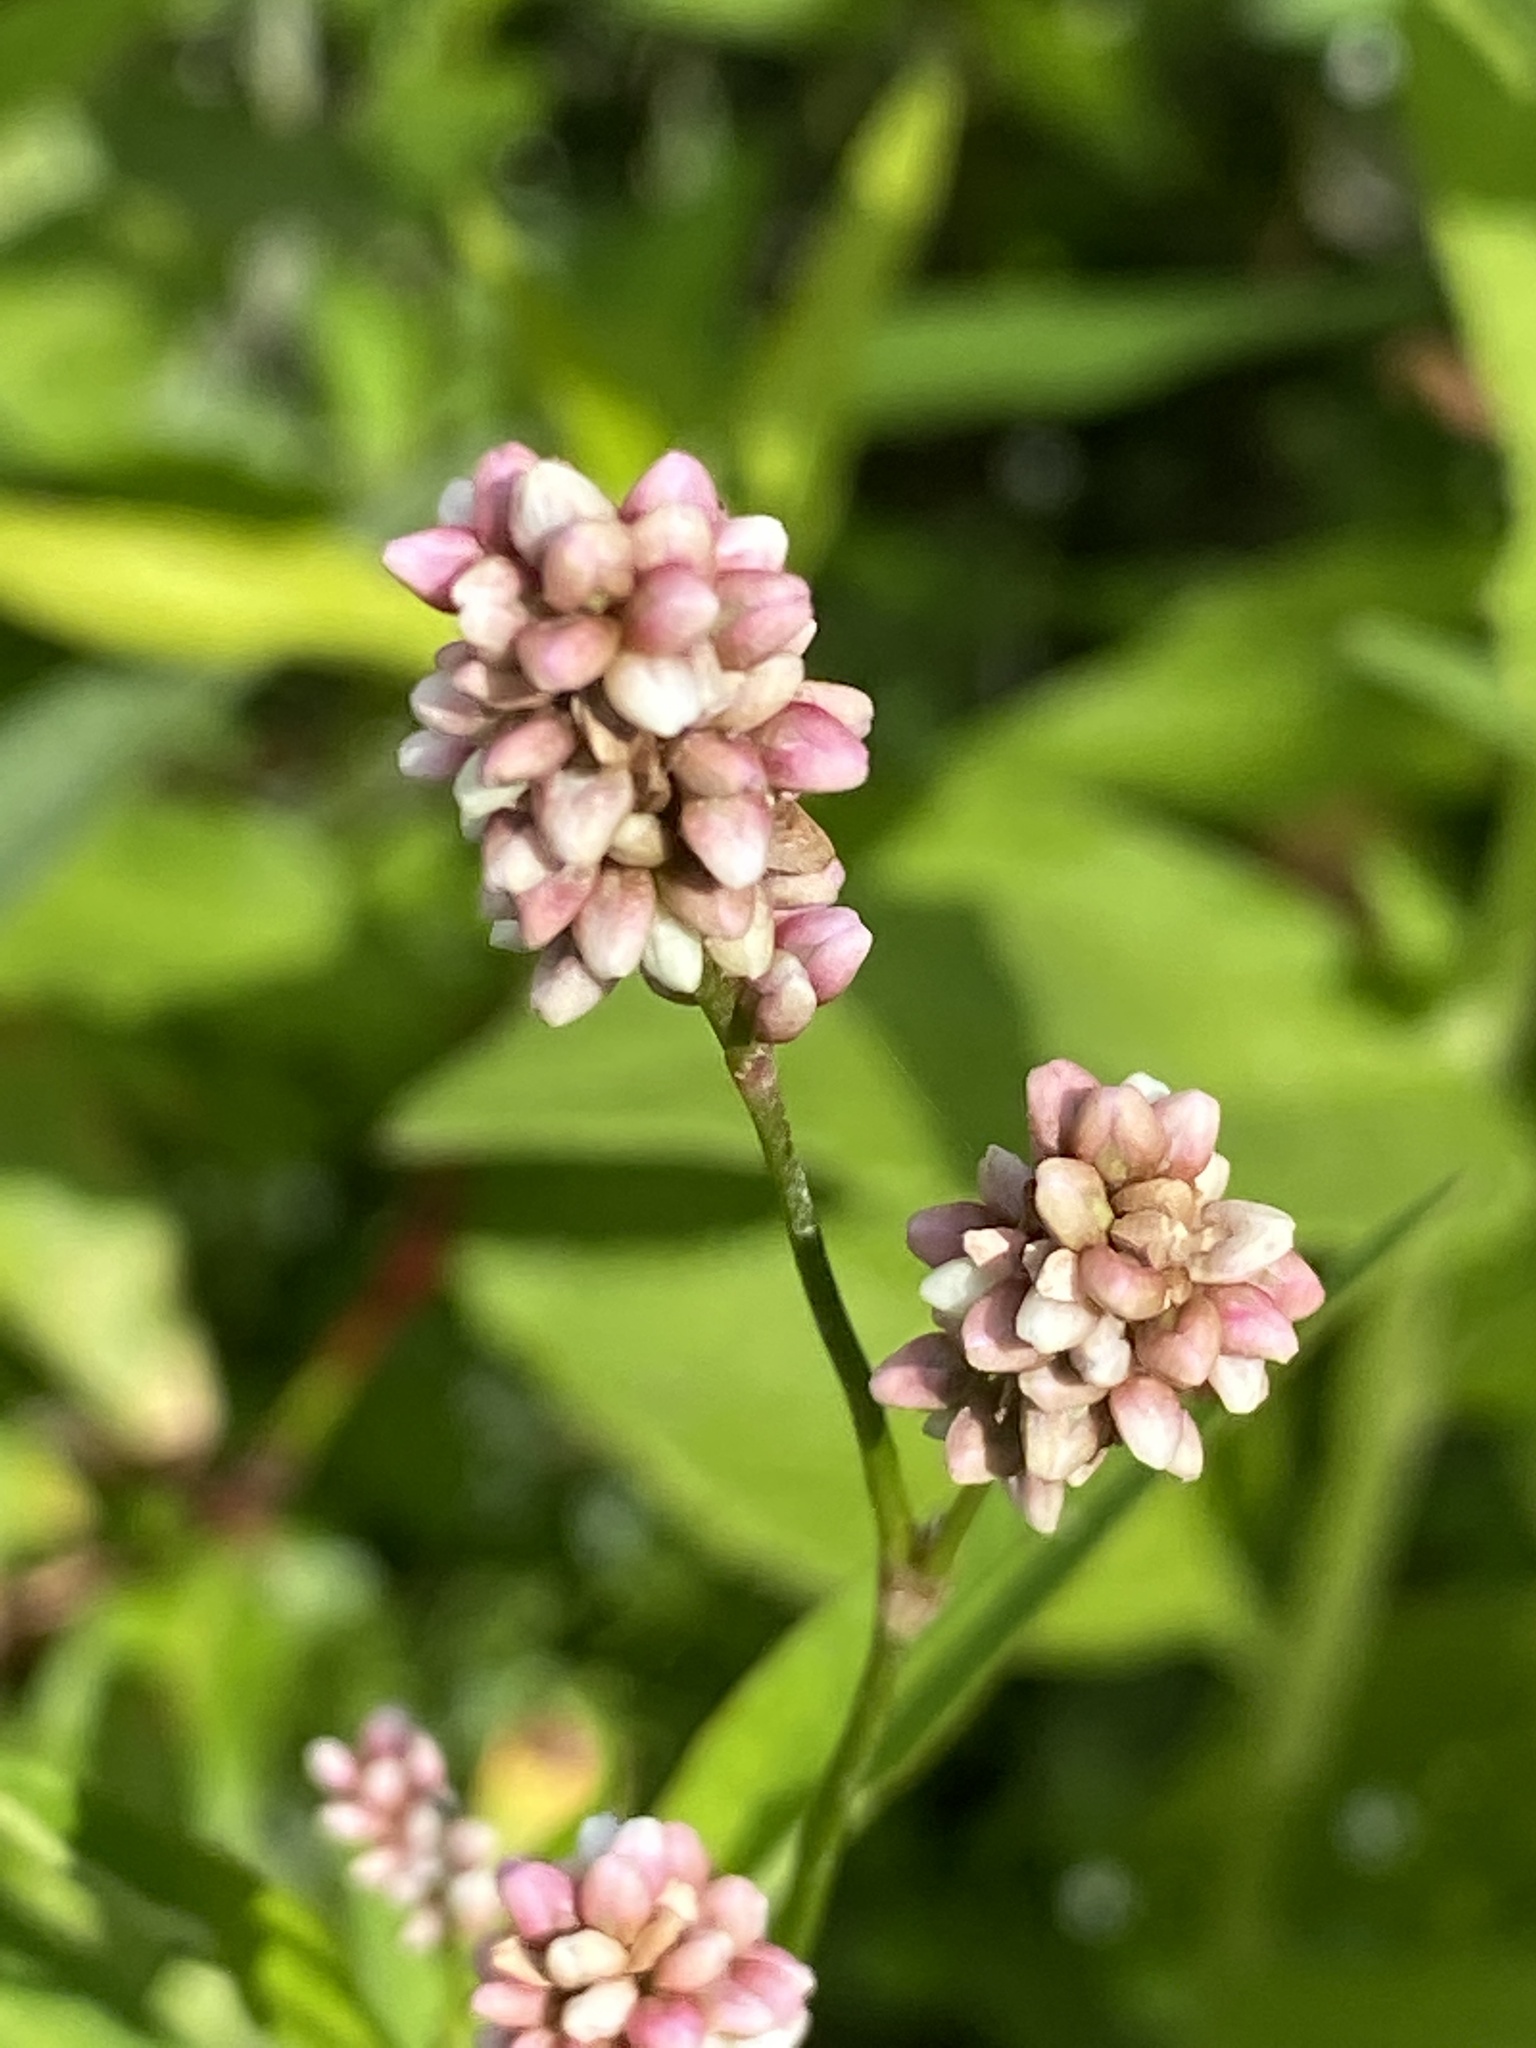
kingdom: Plantae
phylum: Tracheophyta
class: Magnoliopsida
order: Caryophyllales
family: Polygonaceae
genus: Persicaria
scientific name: Persicaria pensylvanica
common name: Pinkweed
